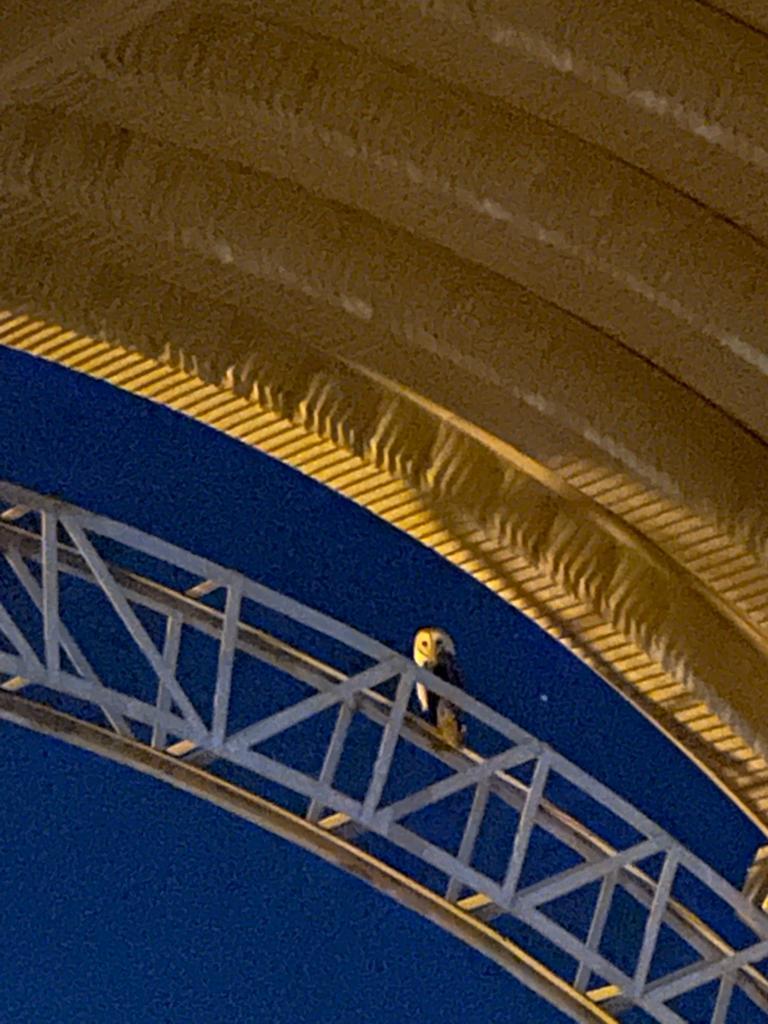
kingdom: Animalia
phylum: Chordata
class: Aves
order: Strigiformes
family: Tytonidae
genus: Tyto
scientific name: Tyto alba
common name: Barn owl
